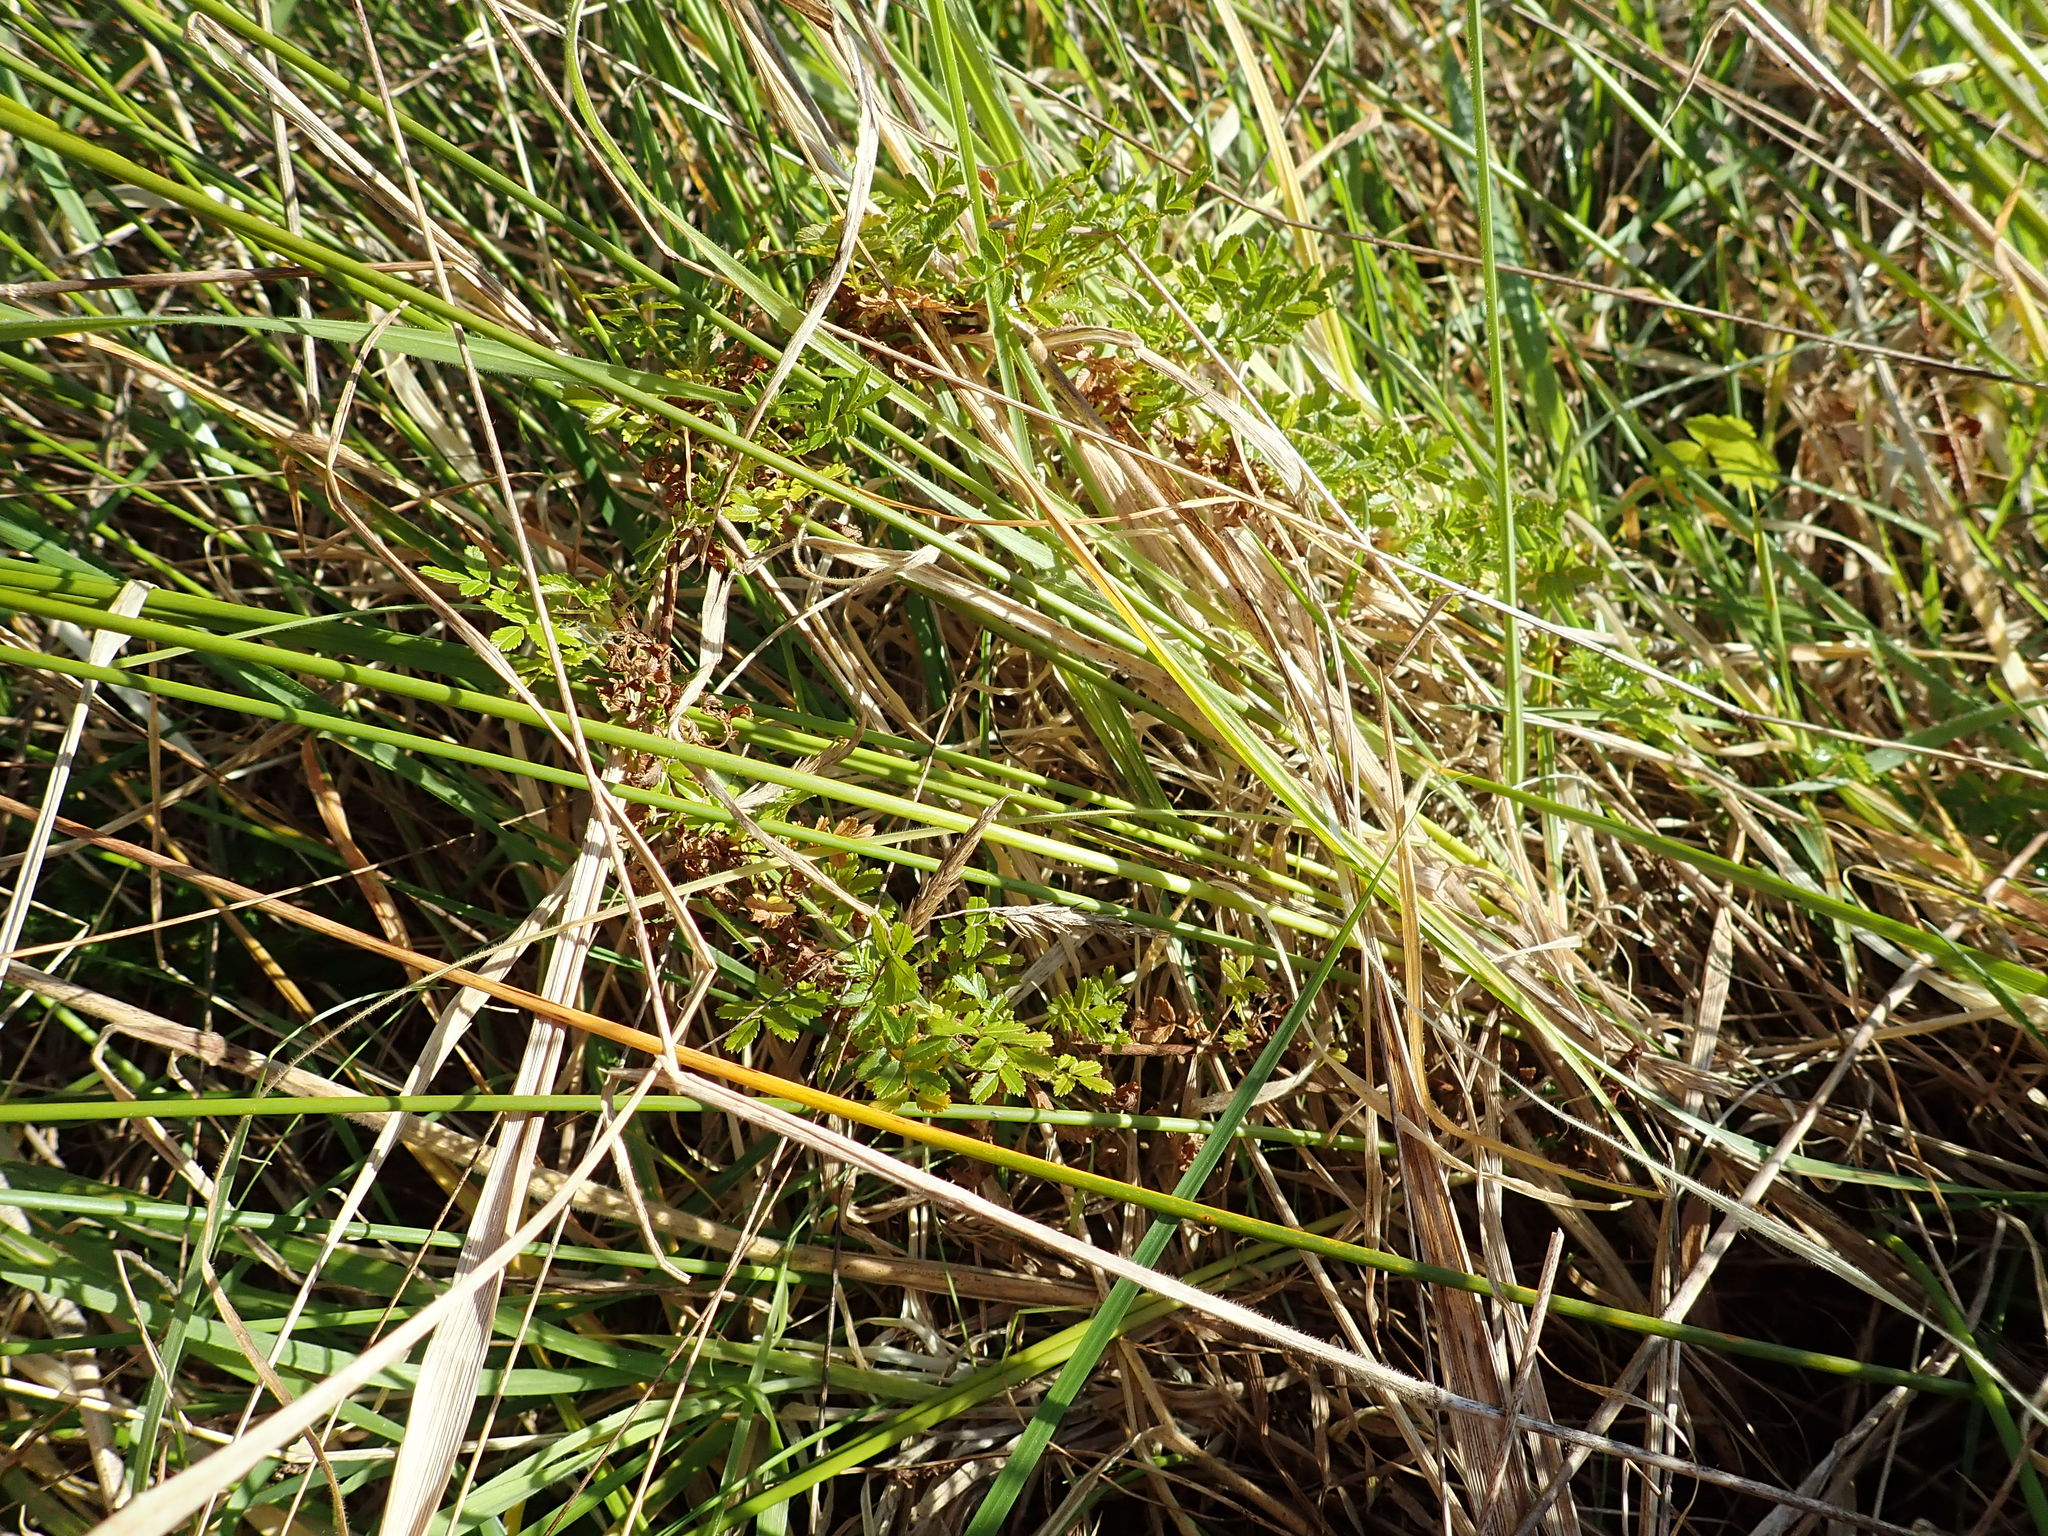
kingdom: Plantae
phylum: Tracheophyta
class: Magnoliopsida
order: Rosales
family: Rosaceae
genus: Acaena
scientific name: Acaena novae-zelandiae
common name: Pirri-pirri-bur
